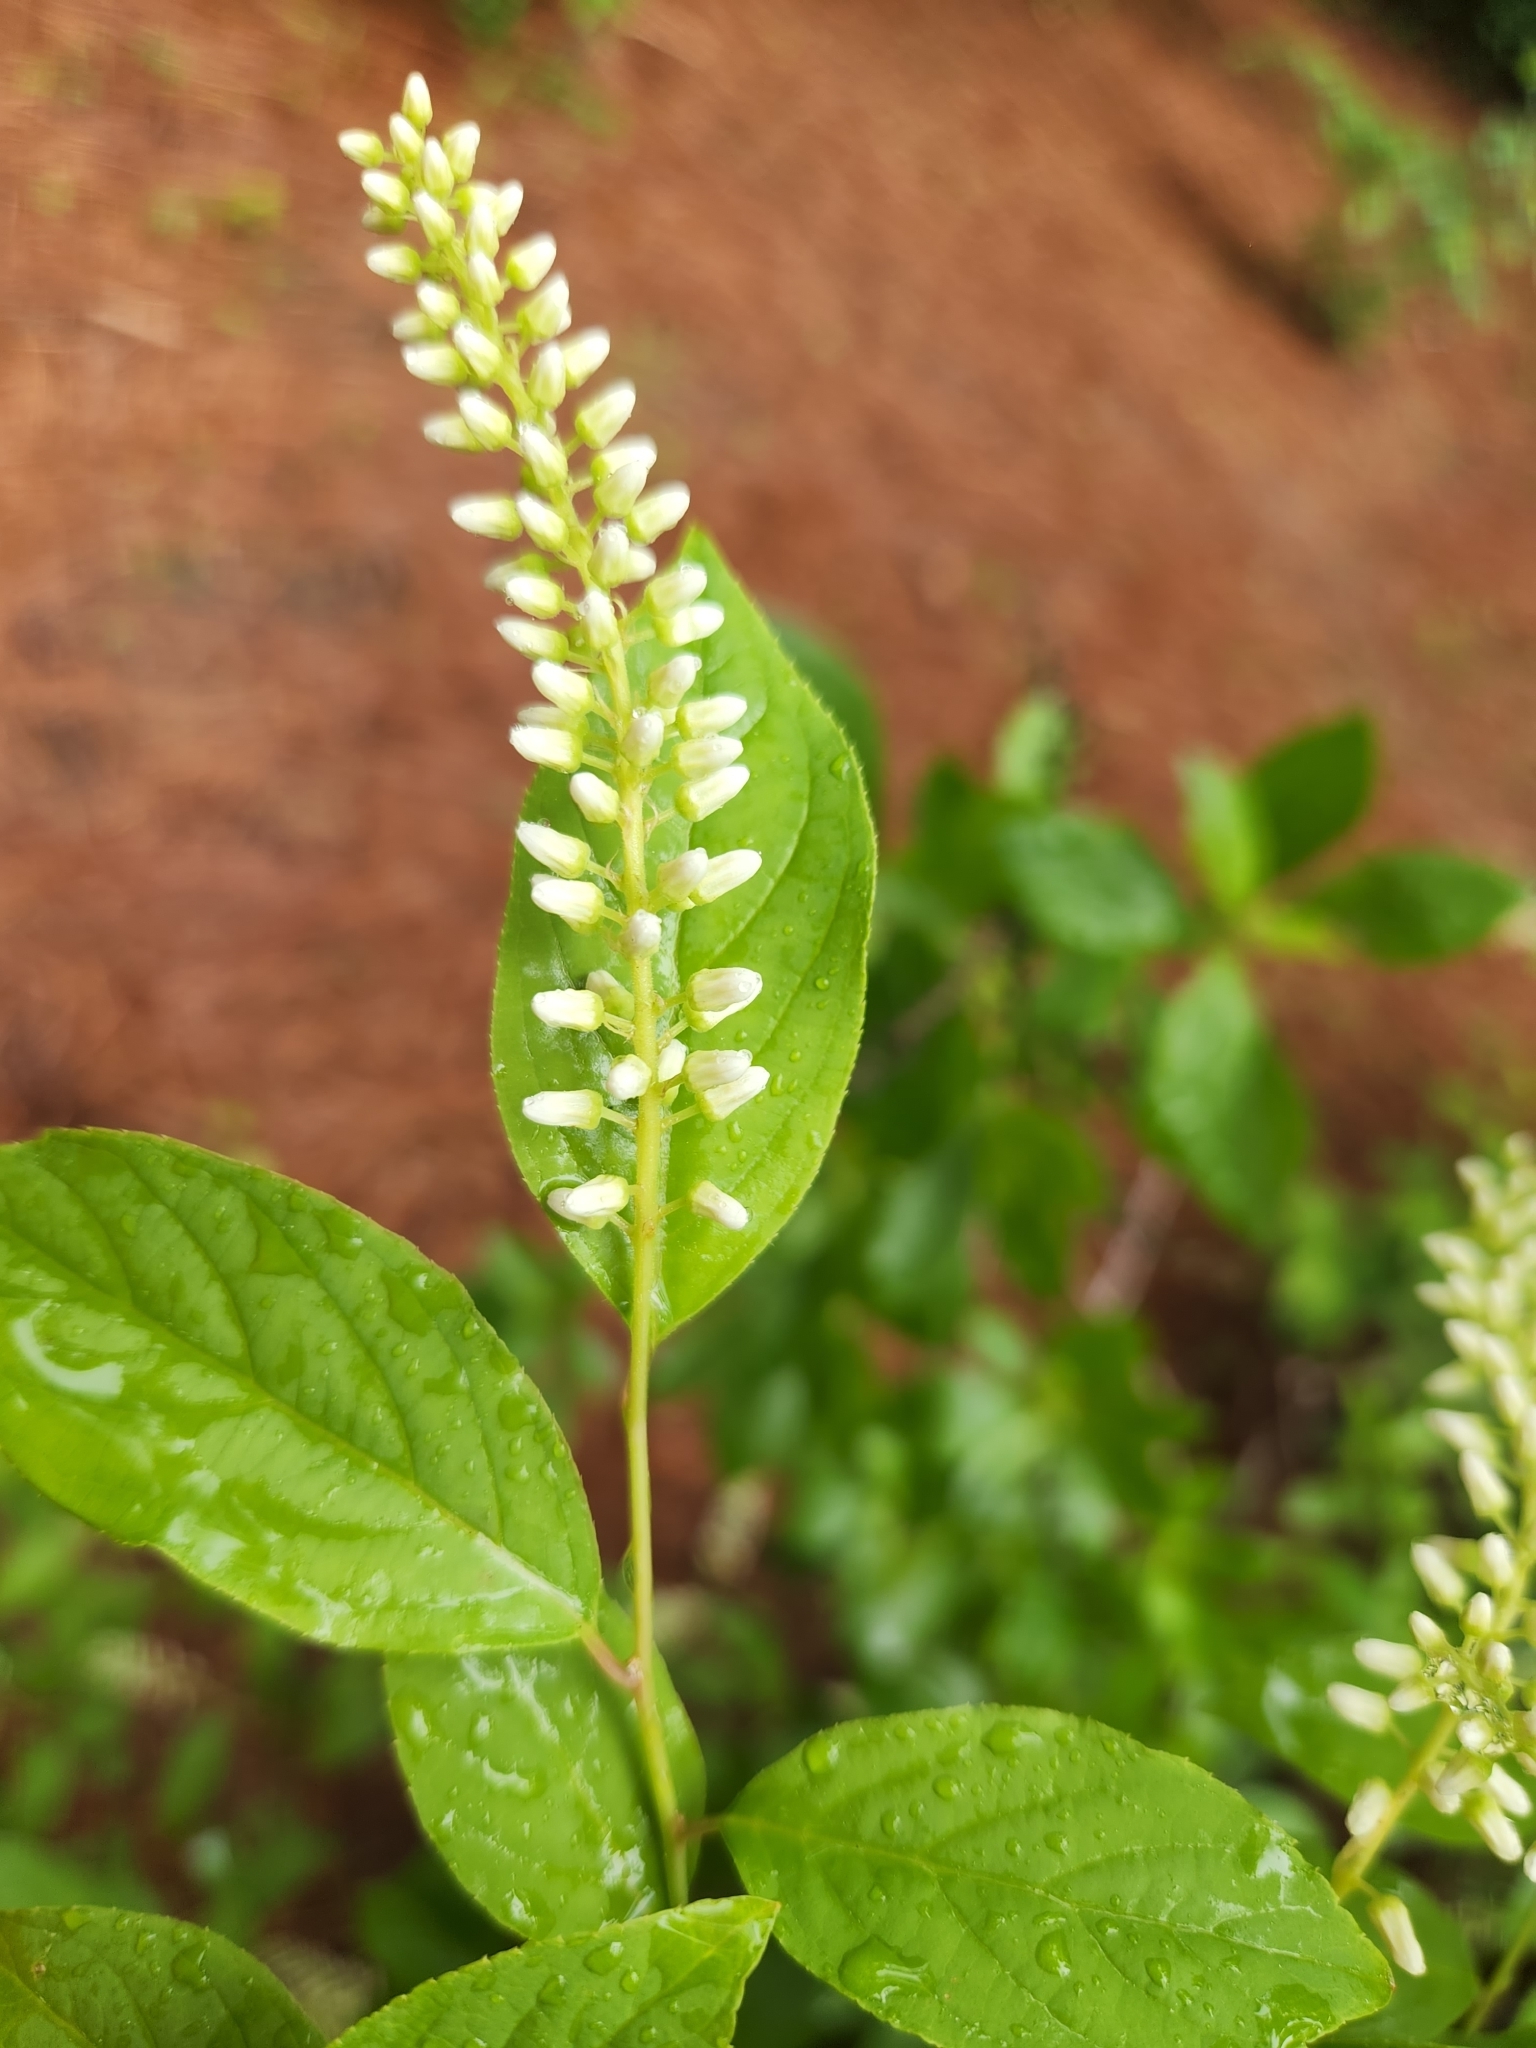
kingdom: Plantae
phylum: Tracheophyta
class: Magnoliopsida
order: Saxifragales
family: Iteaceae
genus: Itea
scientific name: Itea virginica
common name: Sweetspire
